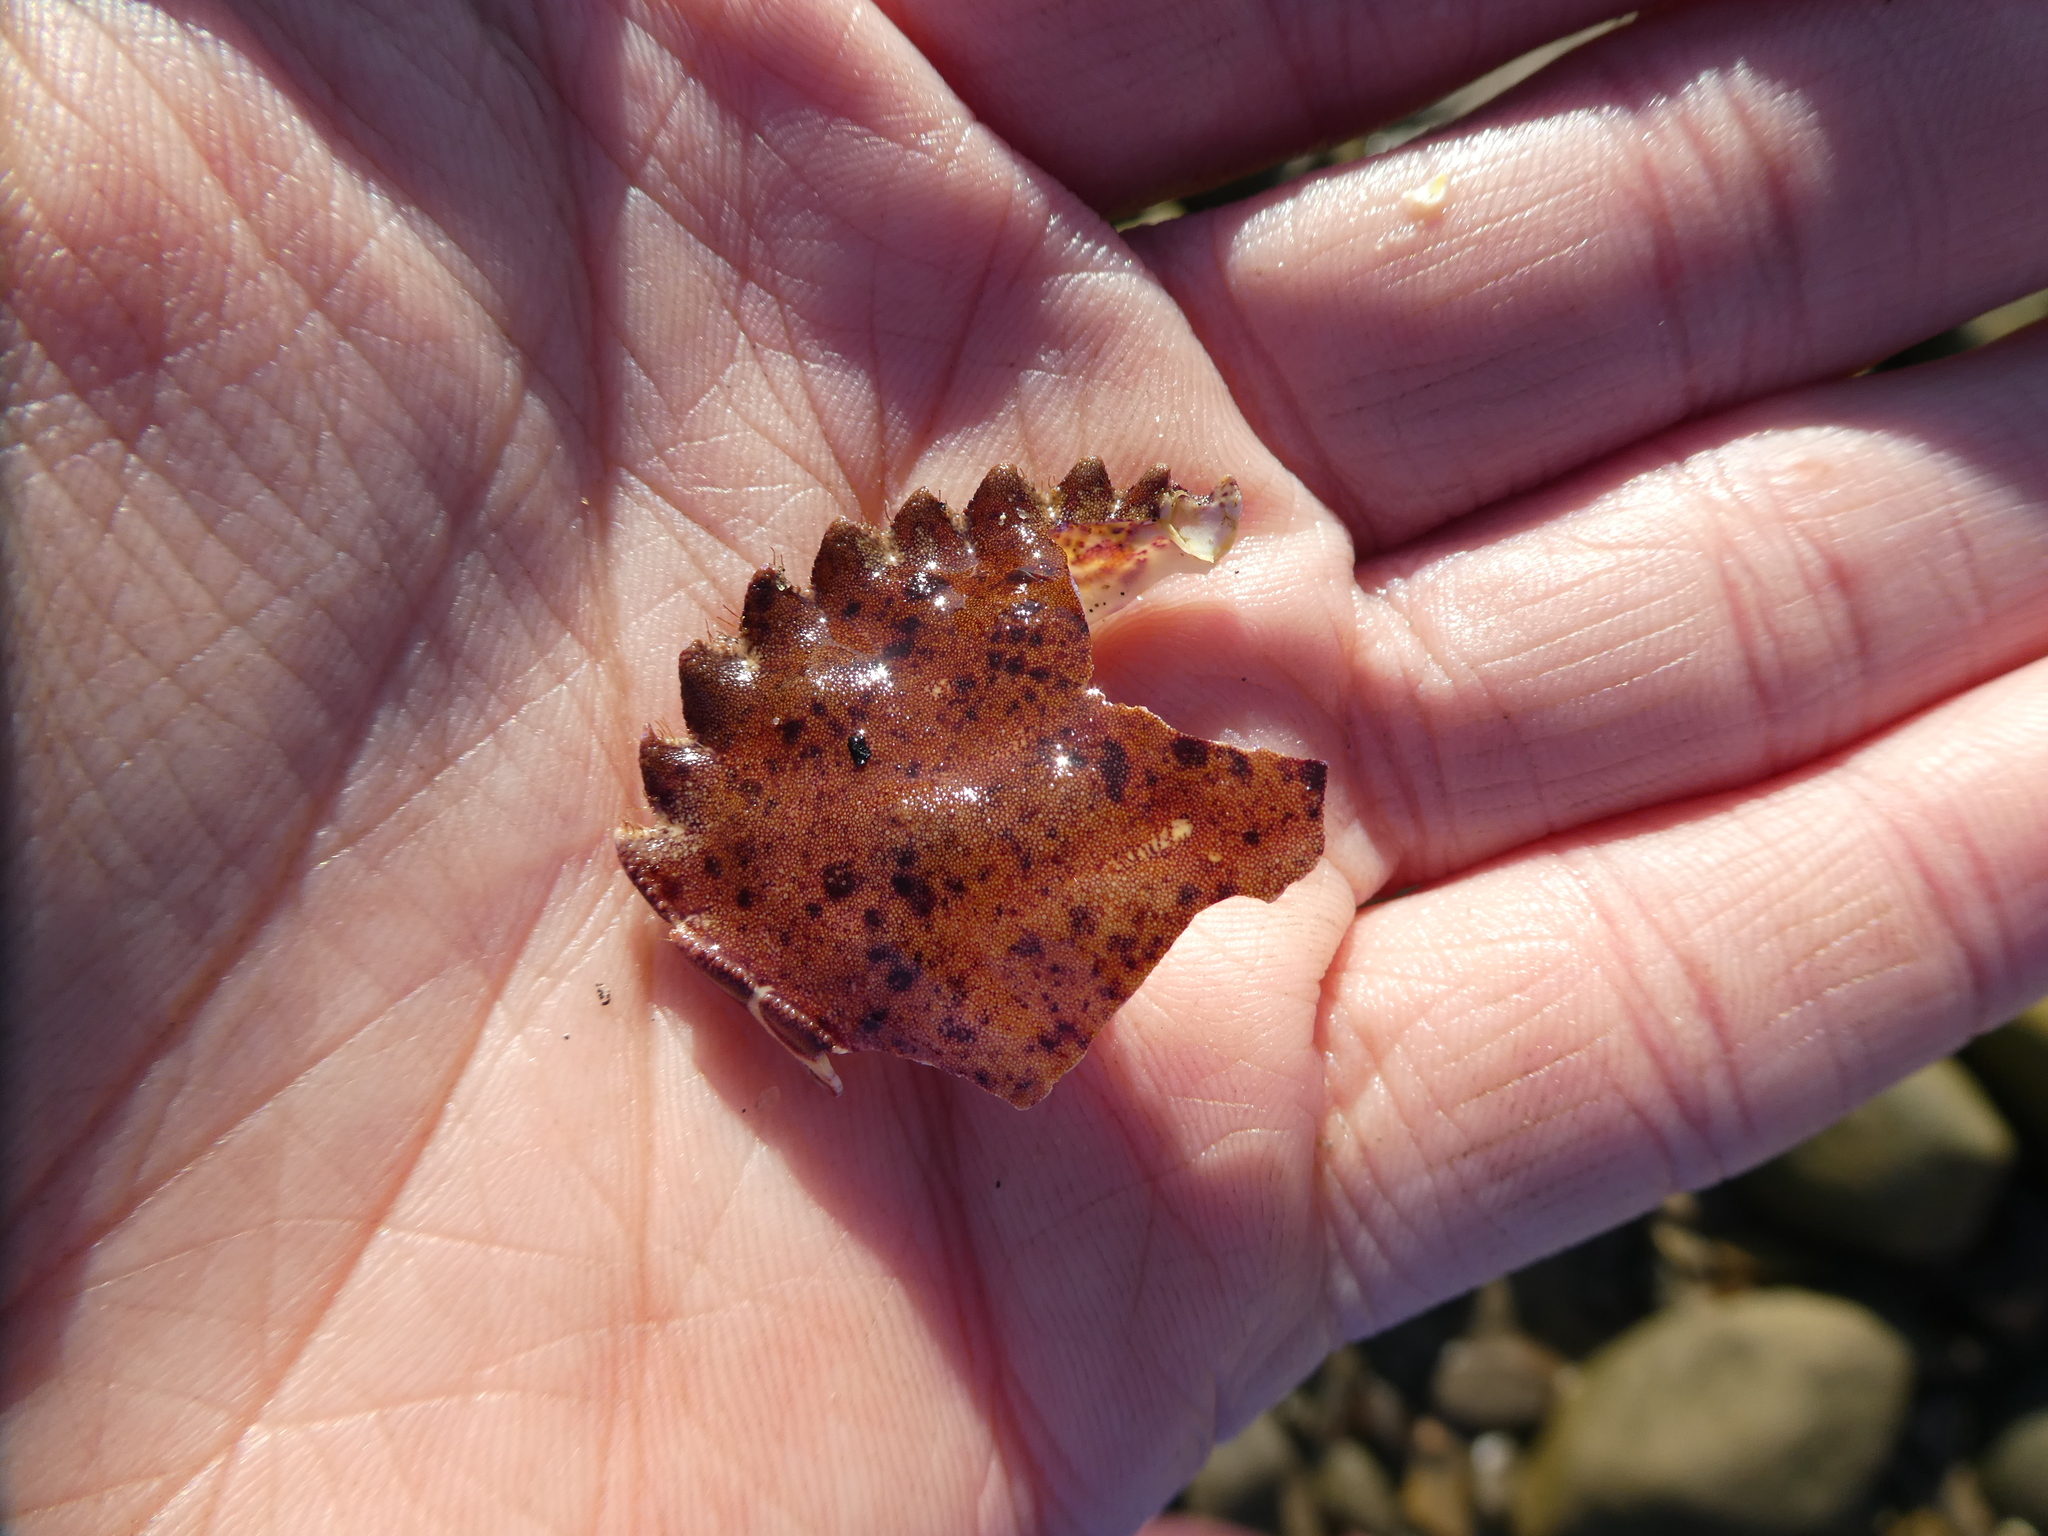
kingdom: Animalia
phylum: Arthropoda
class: Malacostraca
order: Decapoda
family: Cancridae
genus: Romaleon
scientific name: Romaleon antennarium
